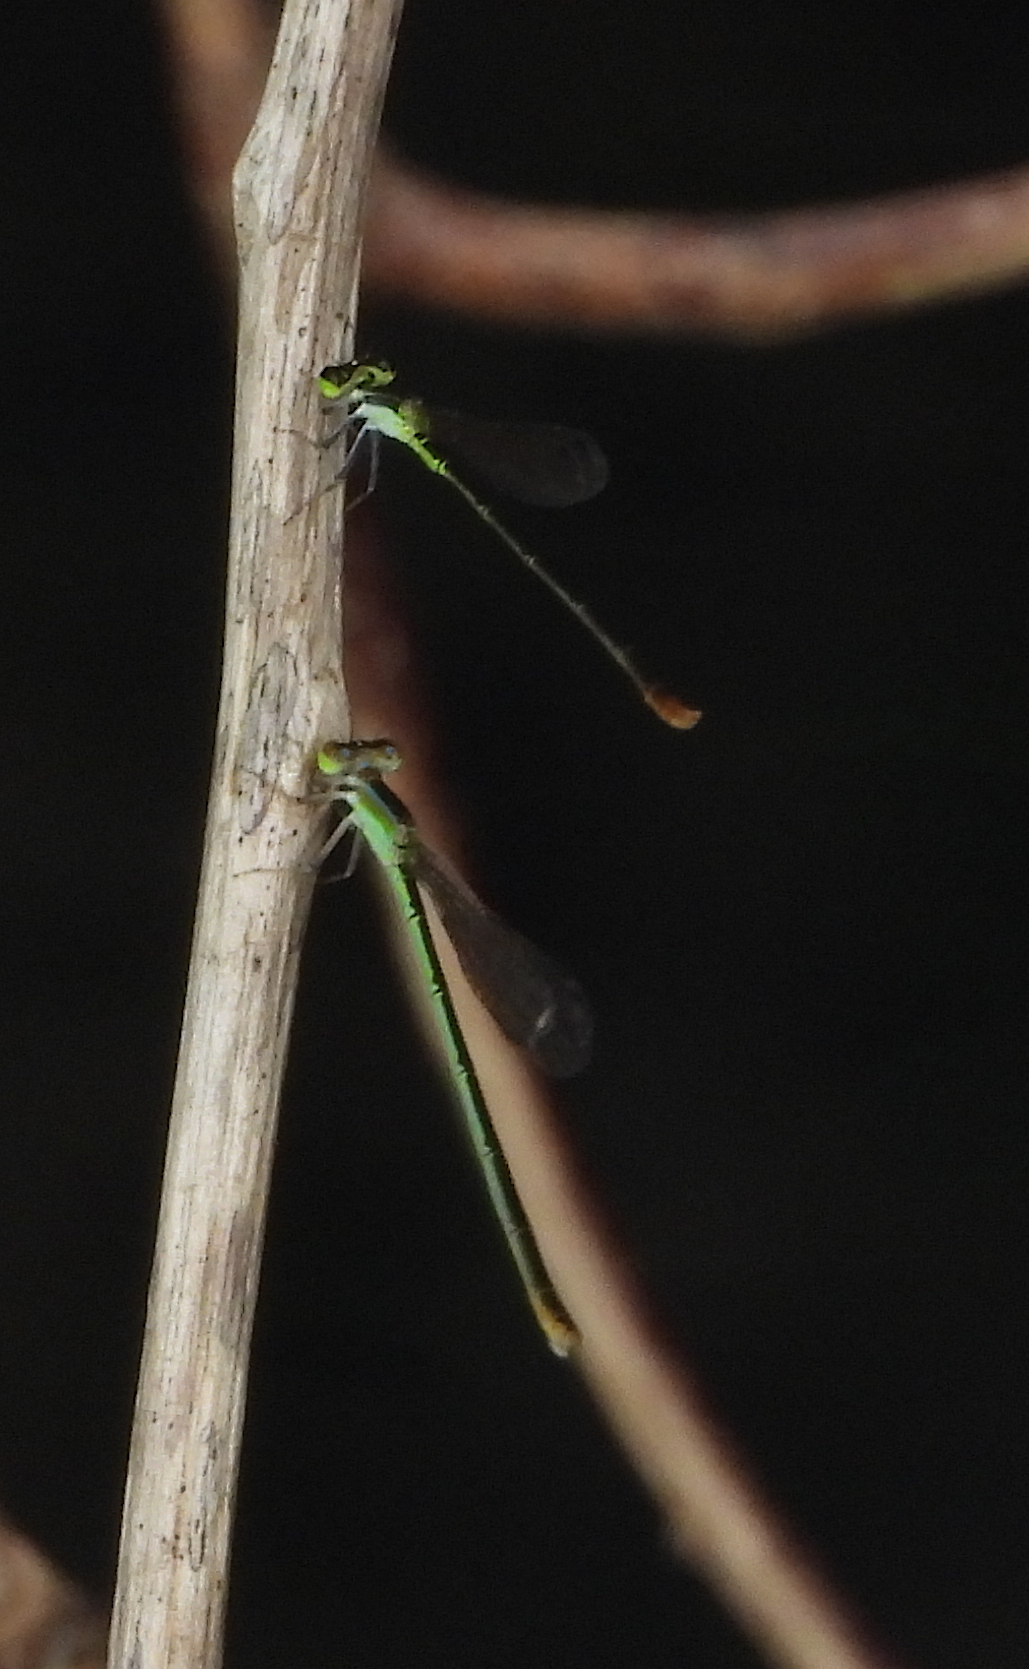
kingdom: Animalia
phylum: Arthropoda
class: Insecta
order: Odonata
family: Coenagrionidae
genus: Agriocnemis
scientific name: Agriocnemis pygmaea
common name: Pygmy wisp
